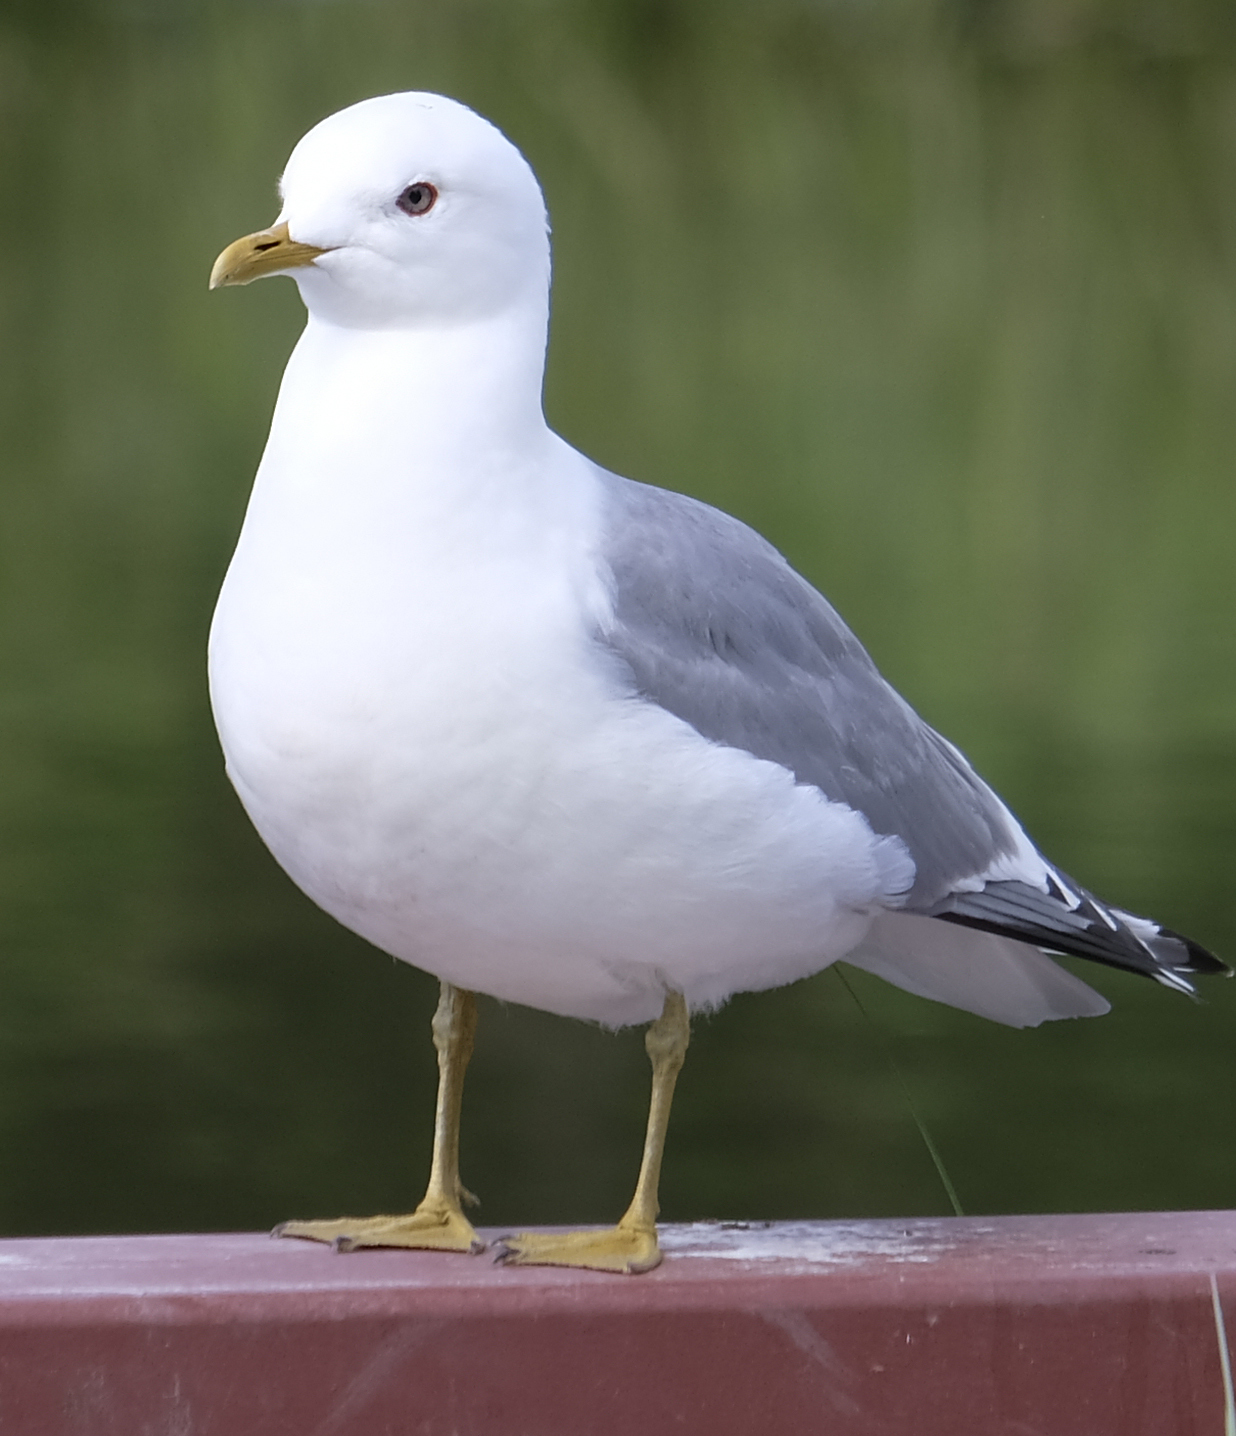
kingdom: Animalia
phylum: Chordata
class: Aves
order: Charadriiformes
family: Laridae
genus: Larus
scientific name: Larus brachyrhynchus
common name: Short-billed gull
